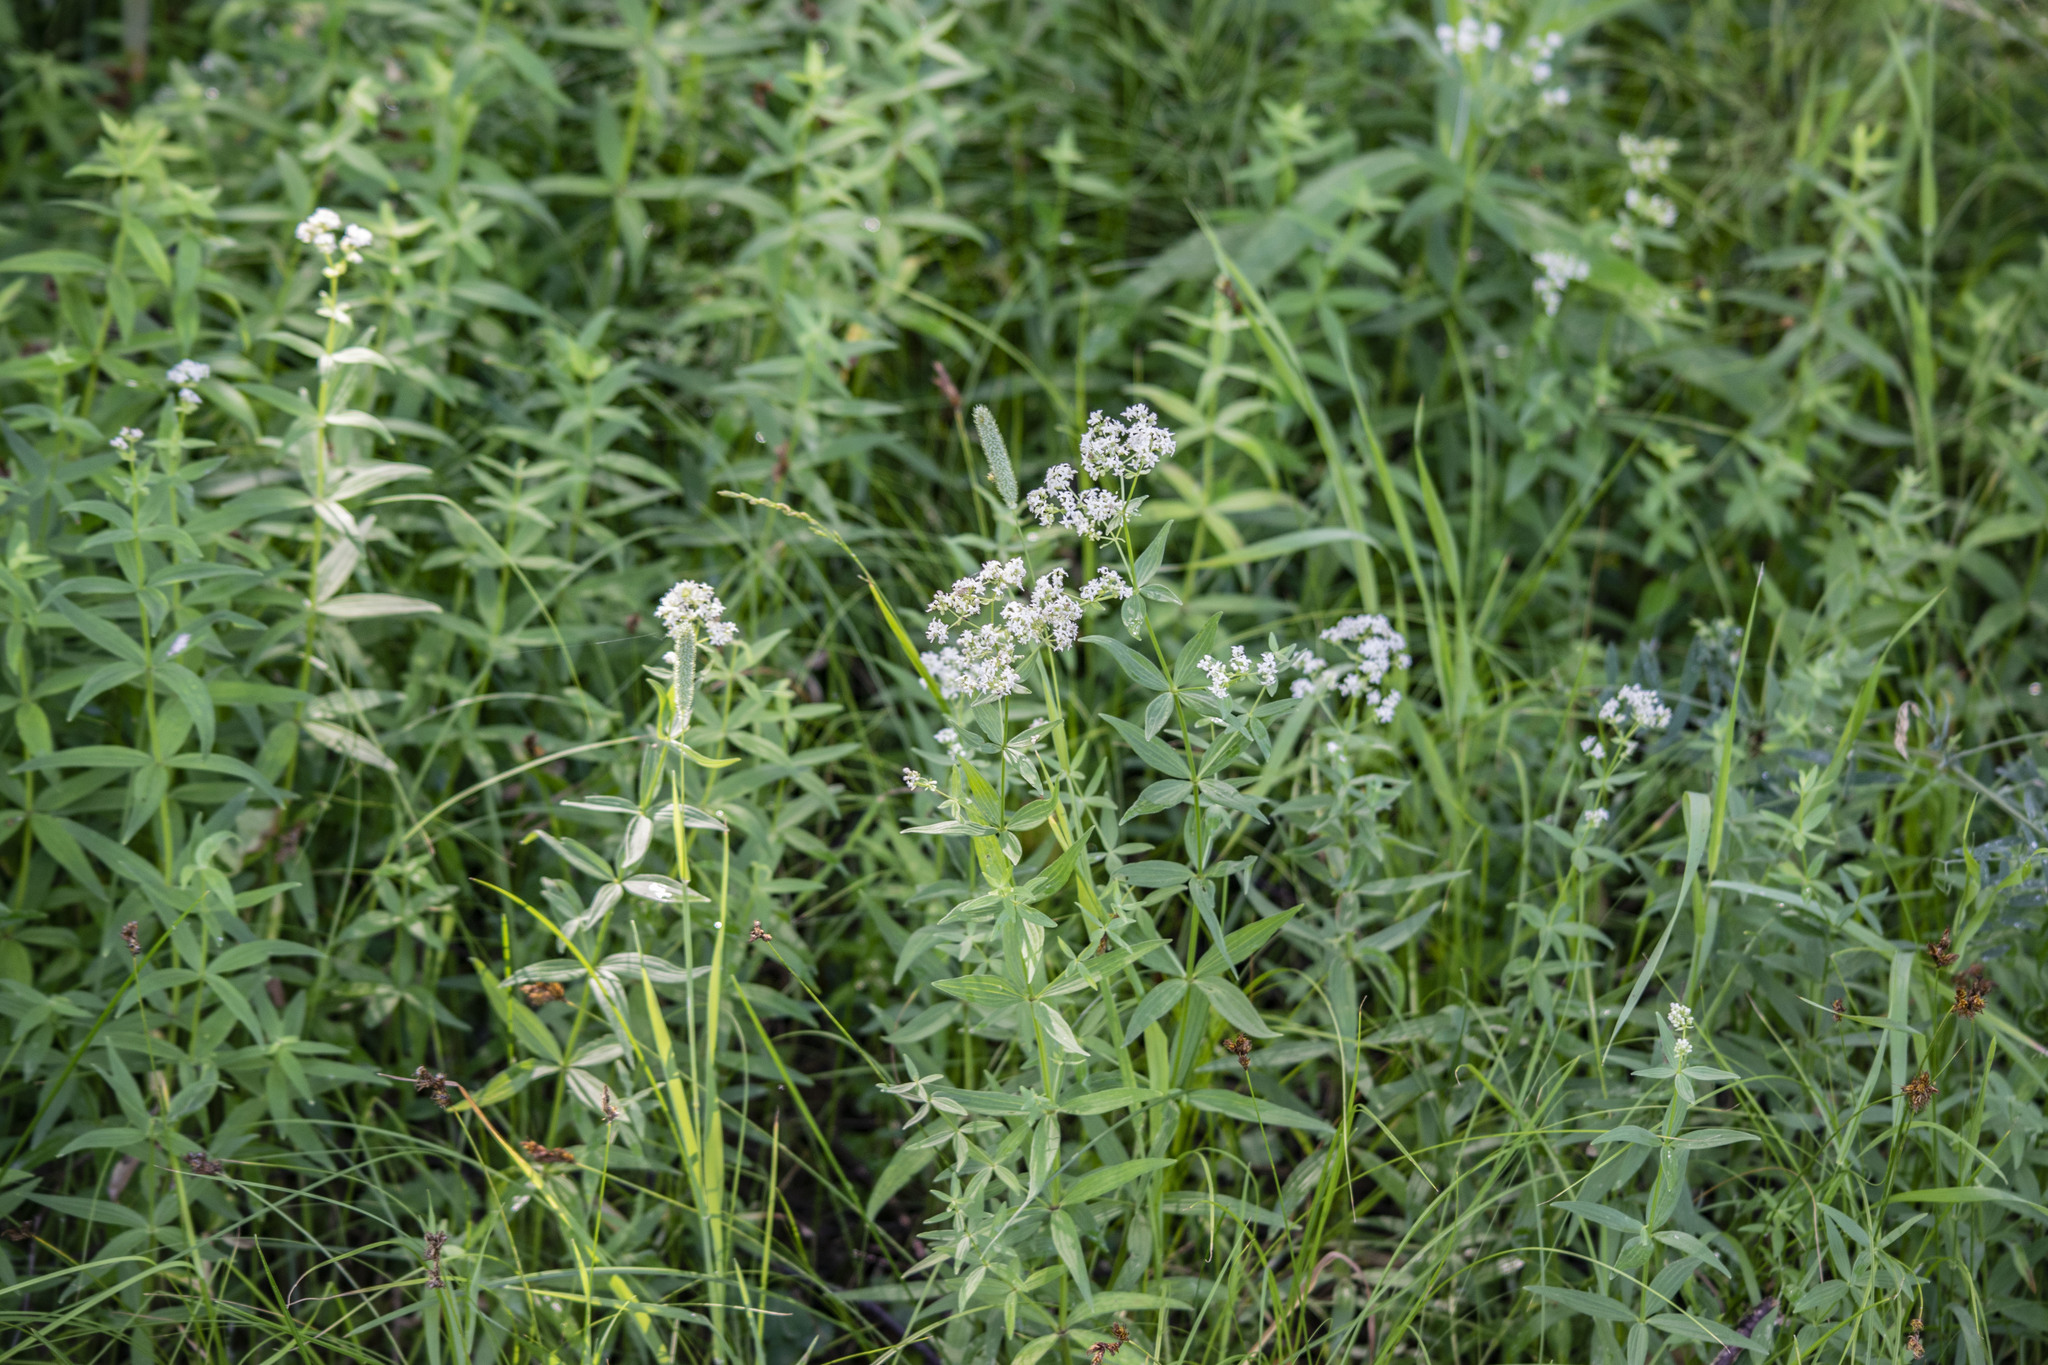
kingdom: Plantae
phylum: Tracheophyta
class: Magnoliopsida
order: Gentianales
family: Rubiaceae
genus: Galium
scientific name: Galium boreale
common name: Northern bedstraw
